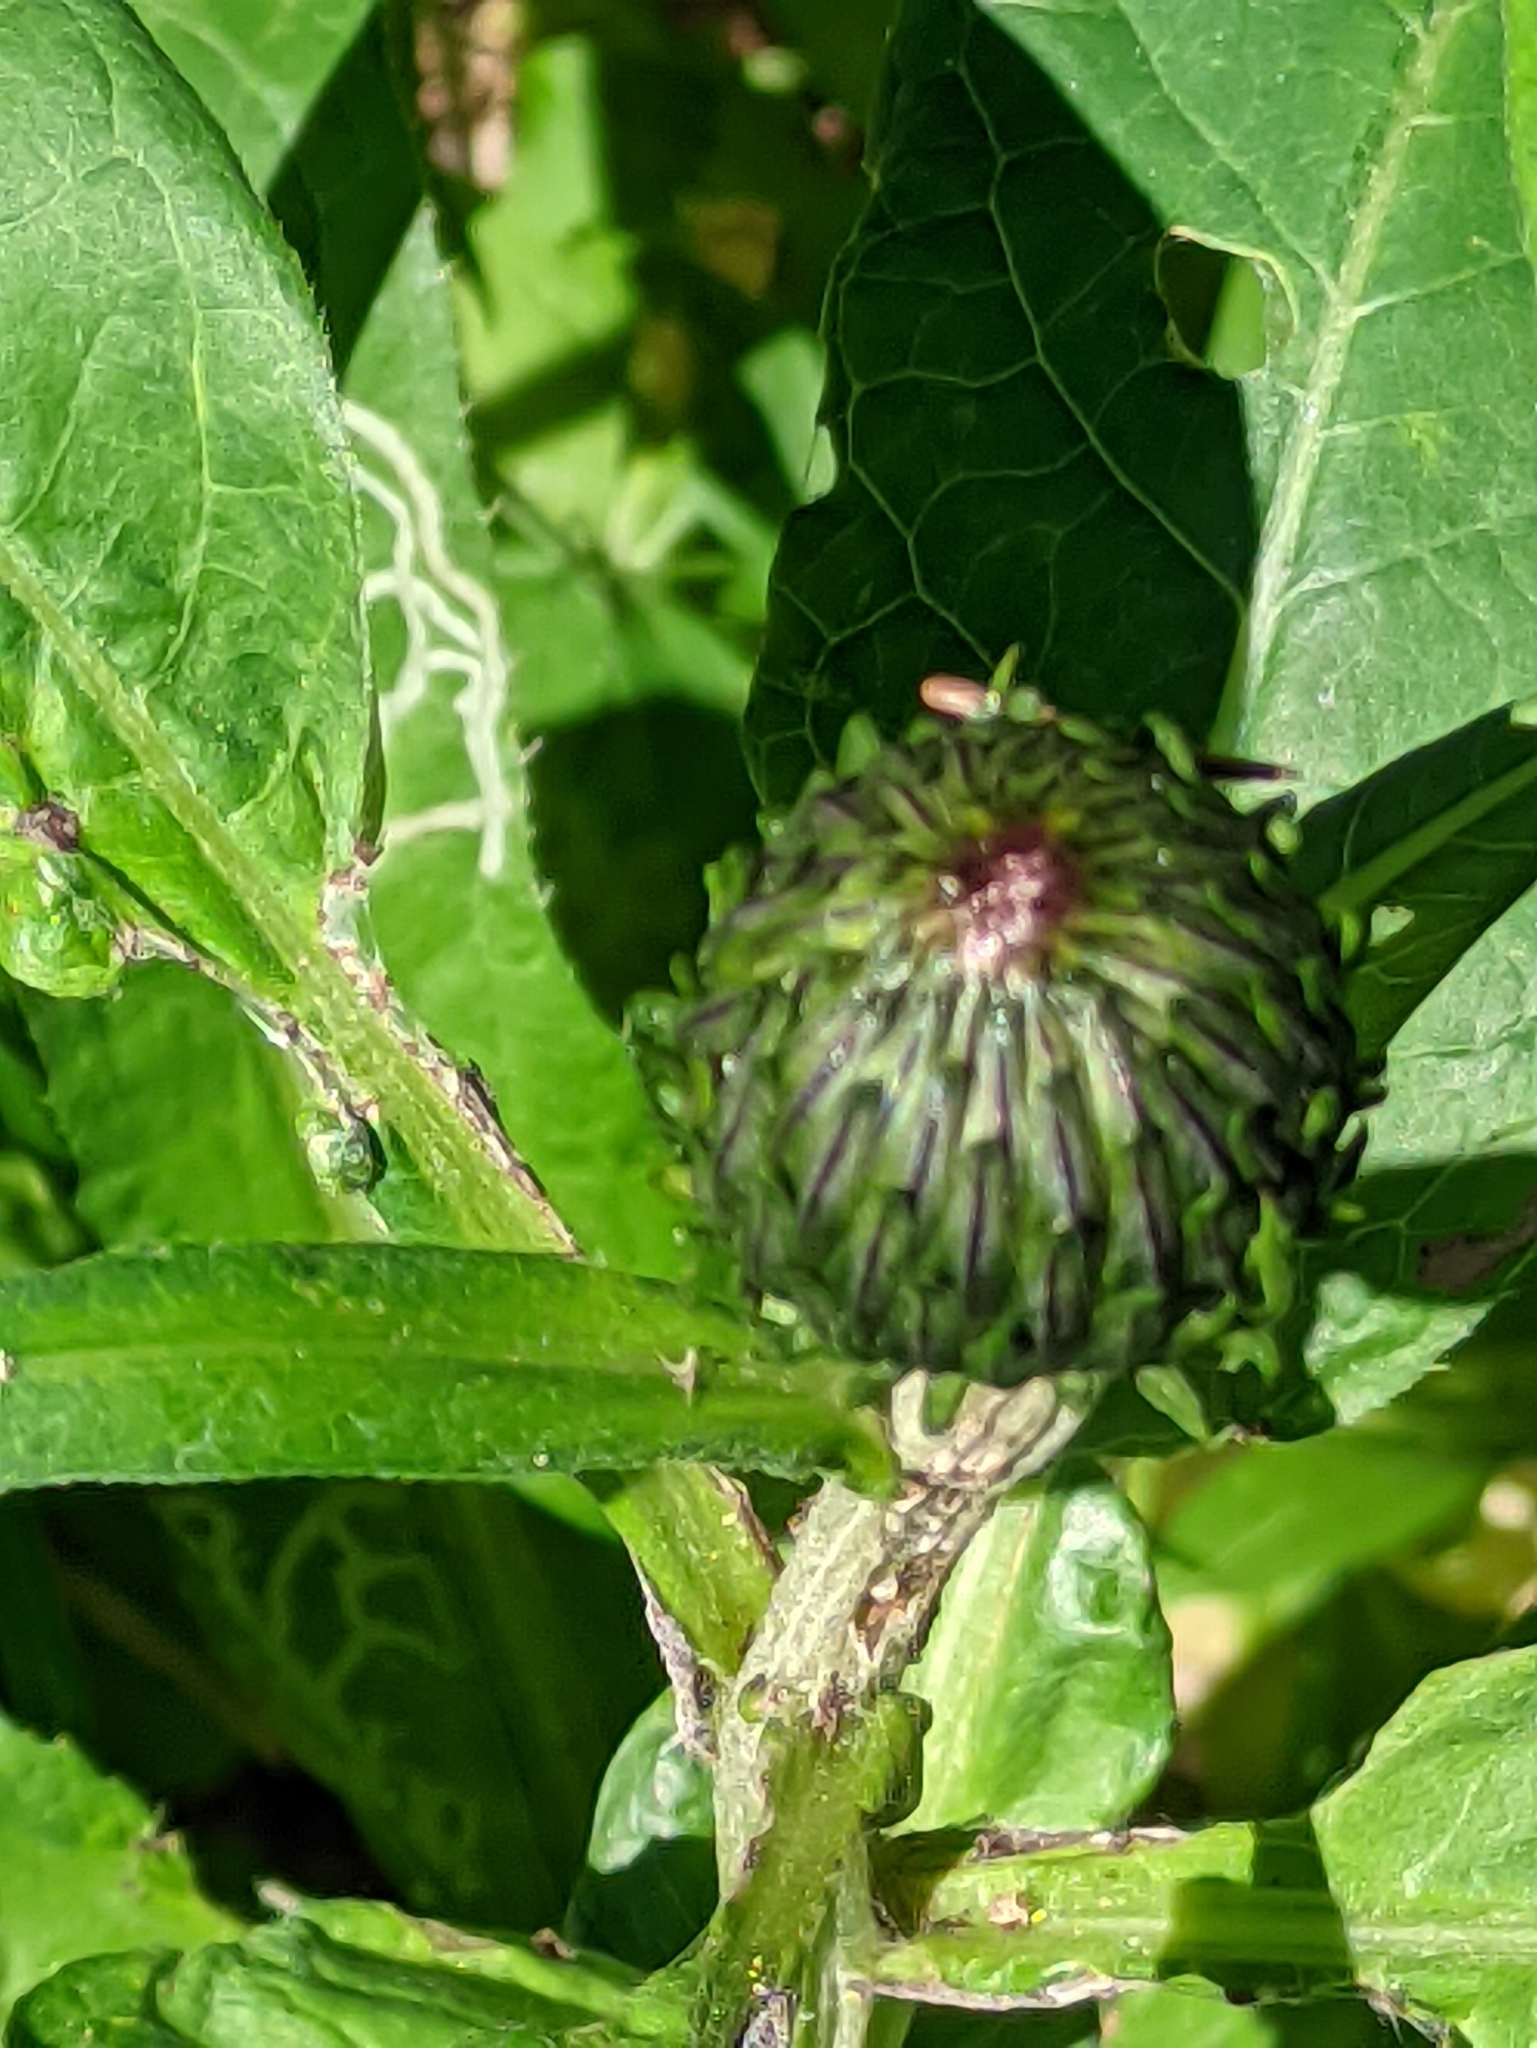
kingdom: Plantae
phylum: Tracheophyta
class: Magnoliopsida
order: Asterales
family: Asteraceae
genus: Cirsium
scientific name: Cirsium heterophyllum
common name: Melancholy thistle
